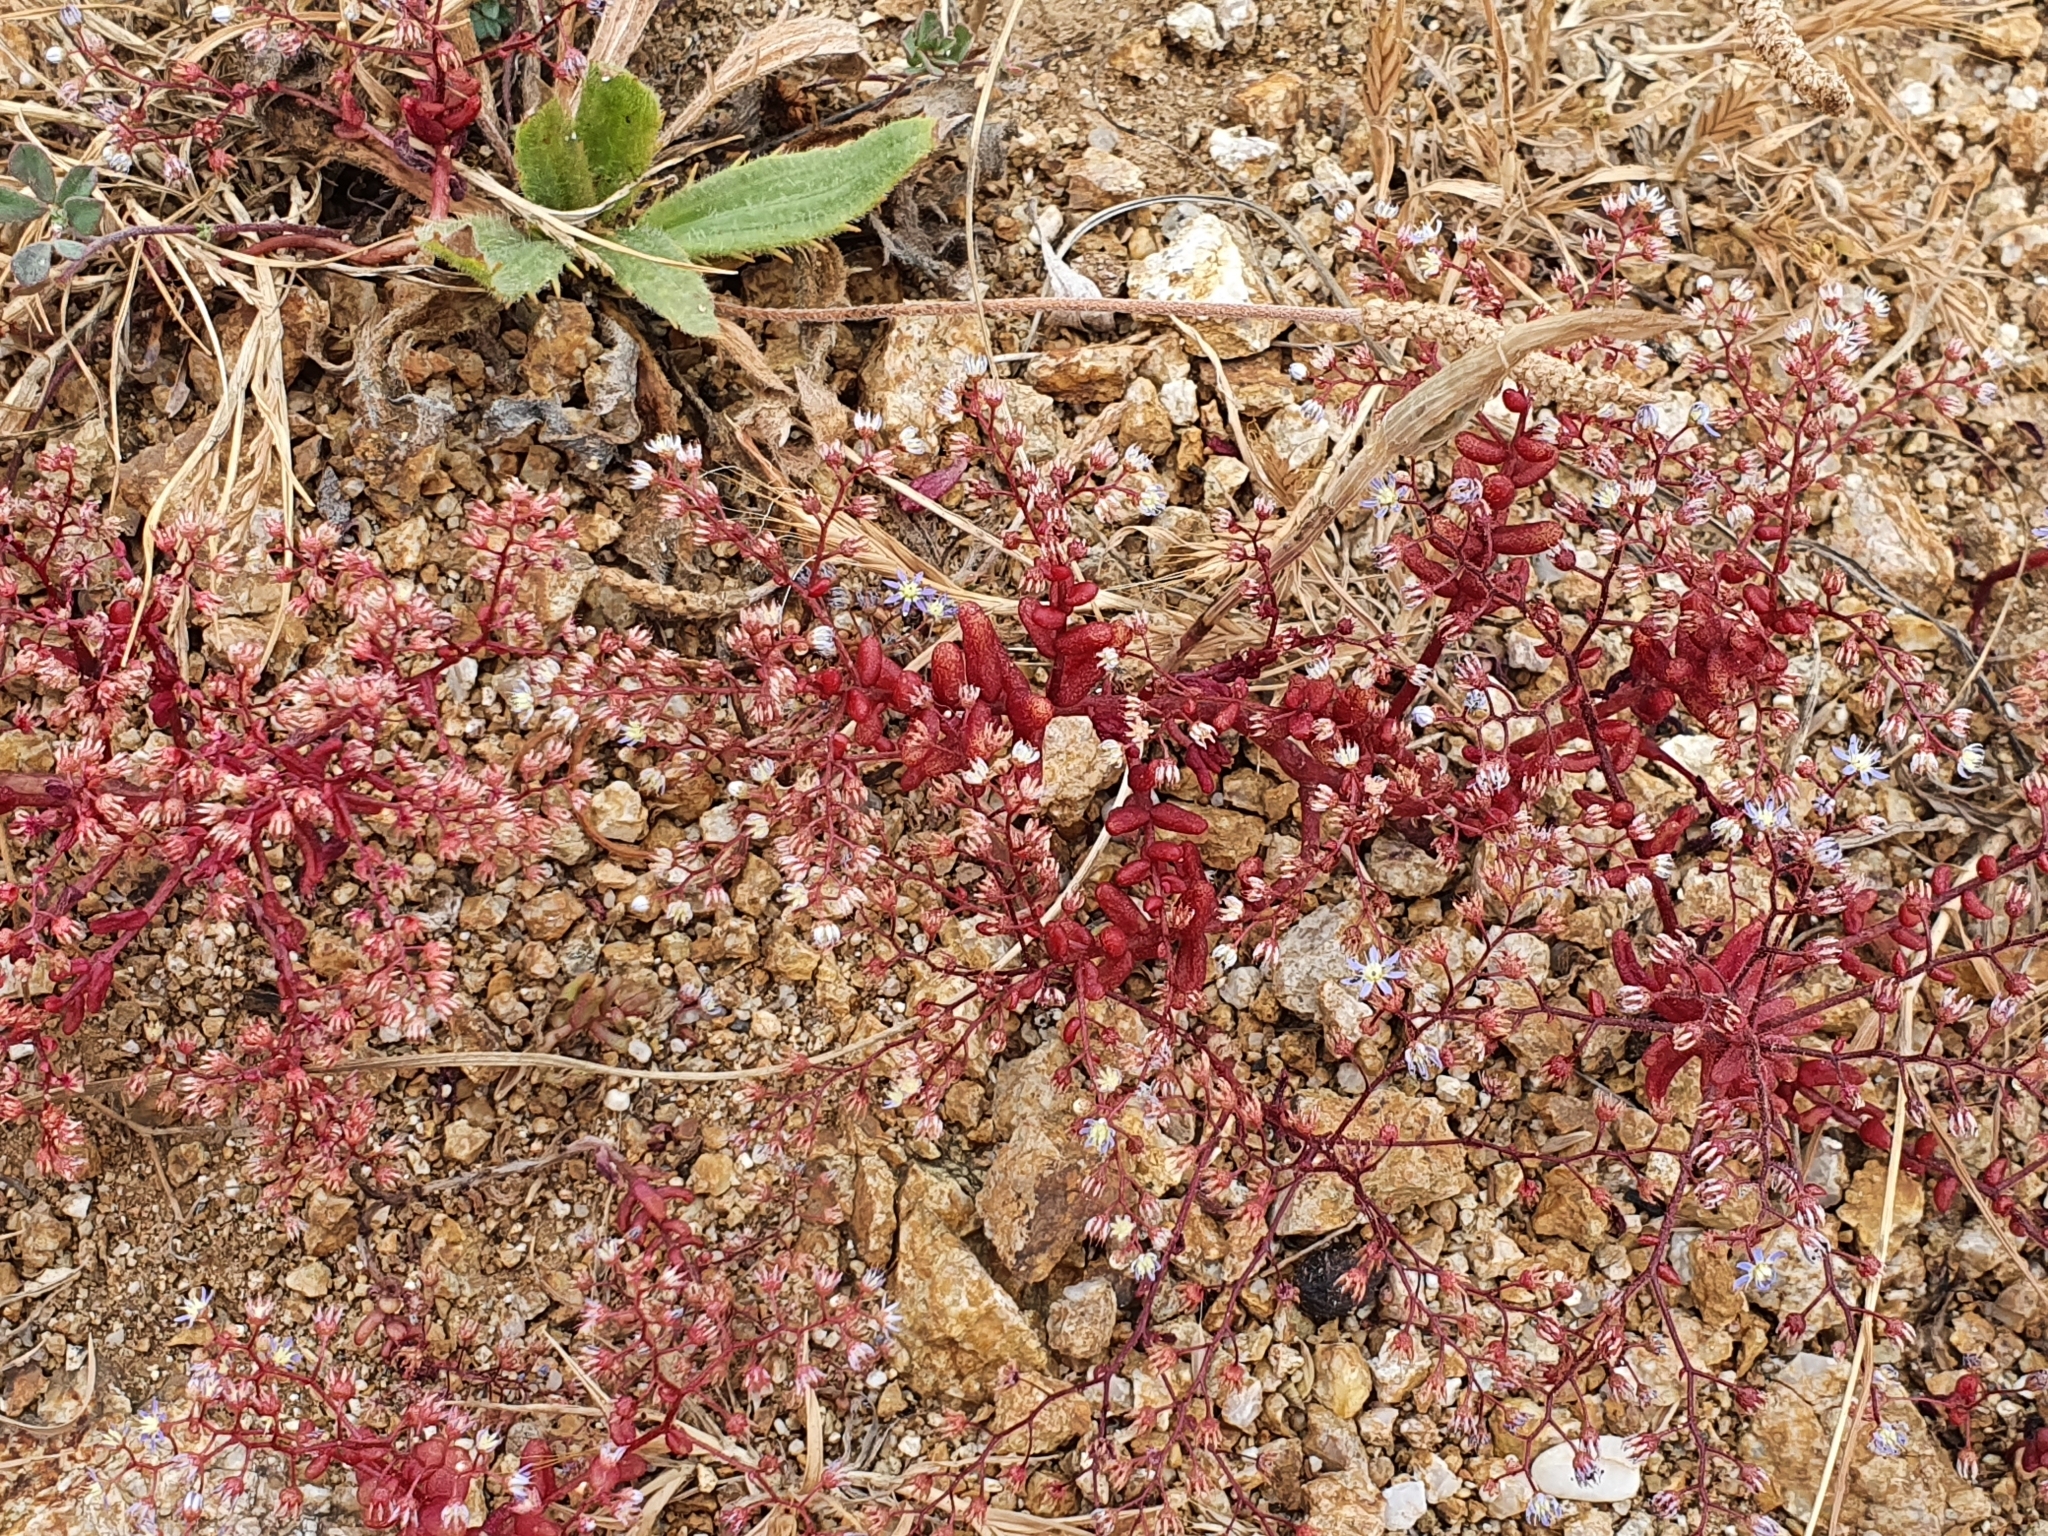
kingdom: Plantae
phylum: Tracheophyta
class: Magnoliopsida
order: Saxifragales
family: Crassulaceae
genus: Sedum
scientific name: Sedum caeruleum
